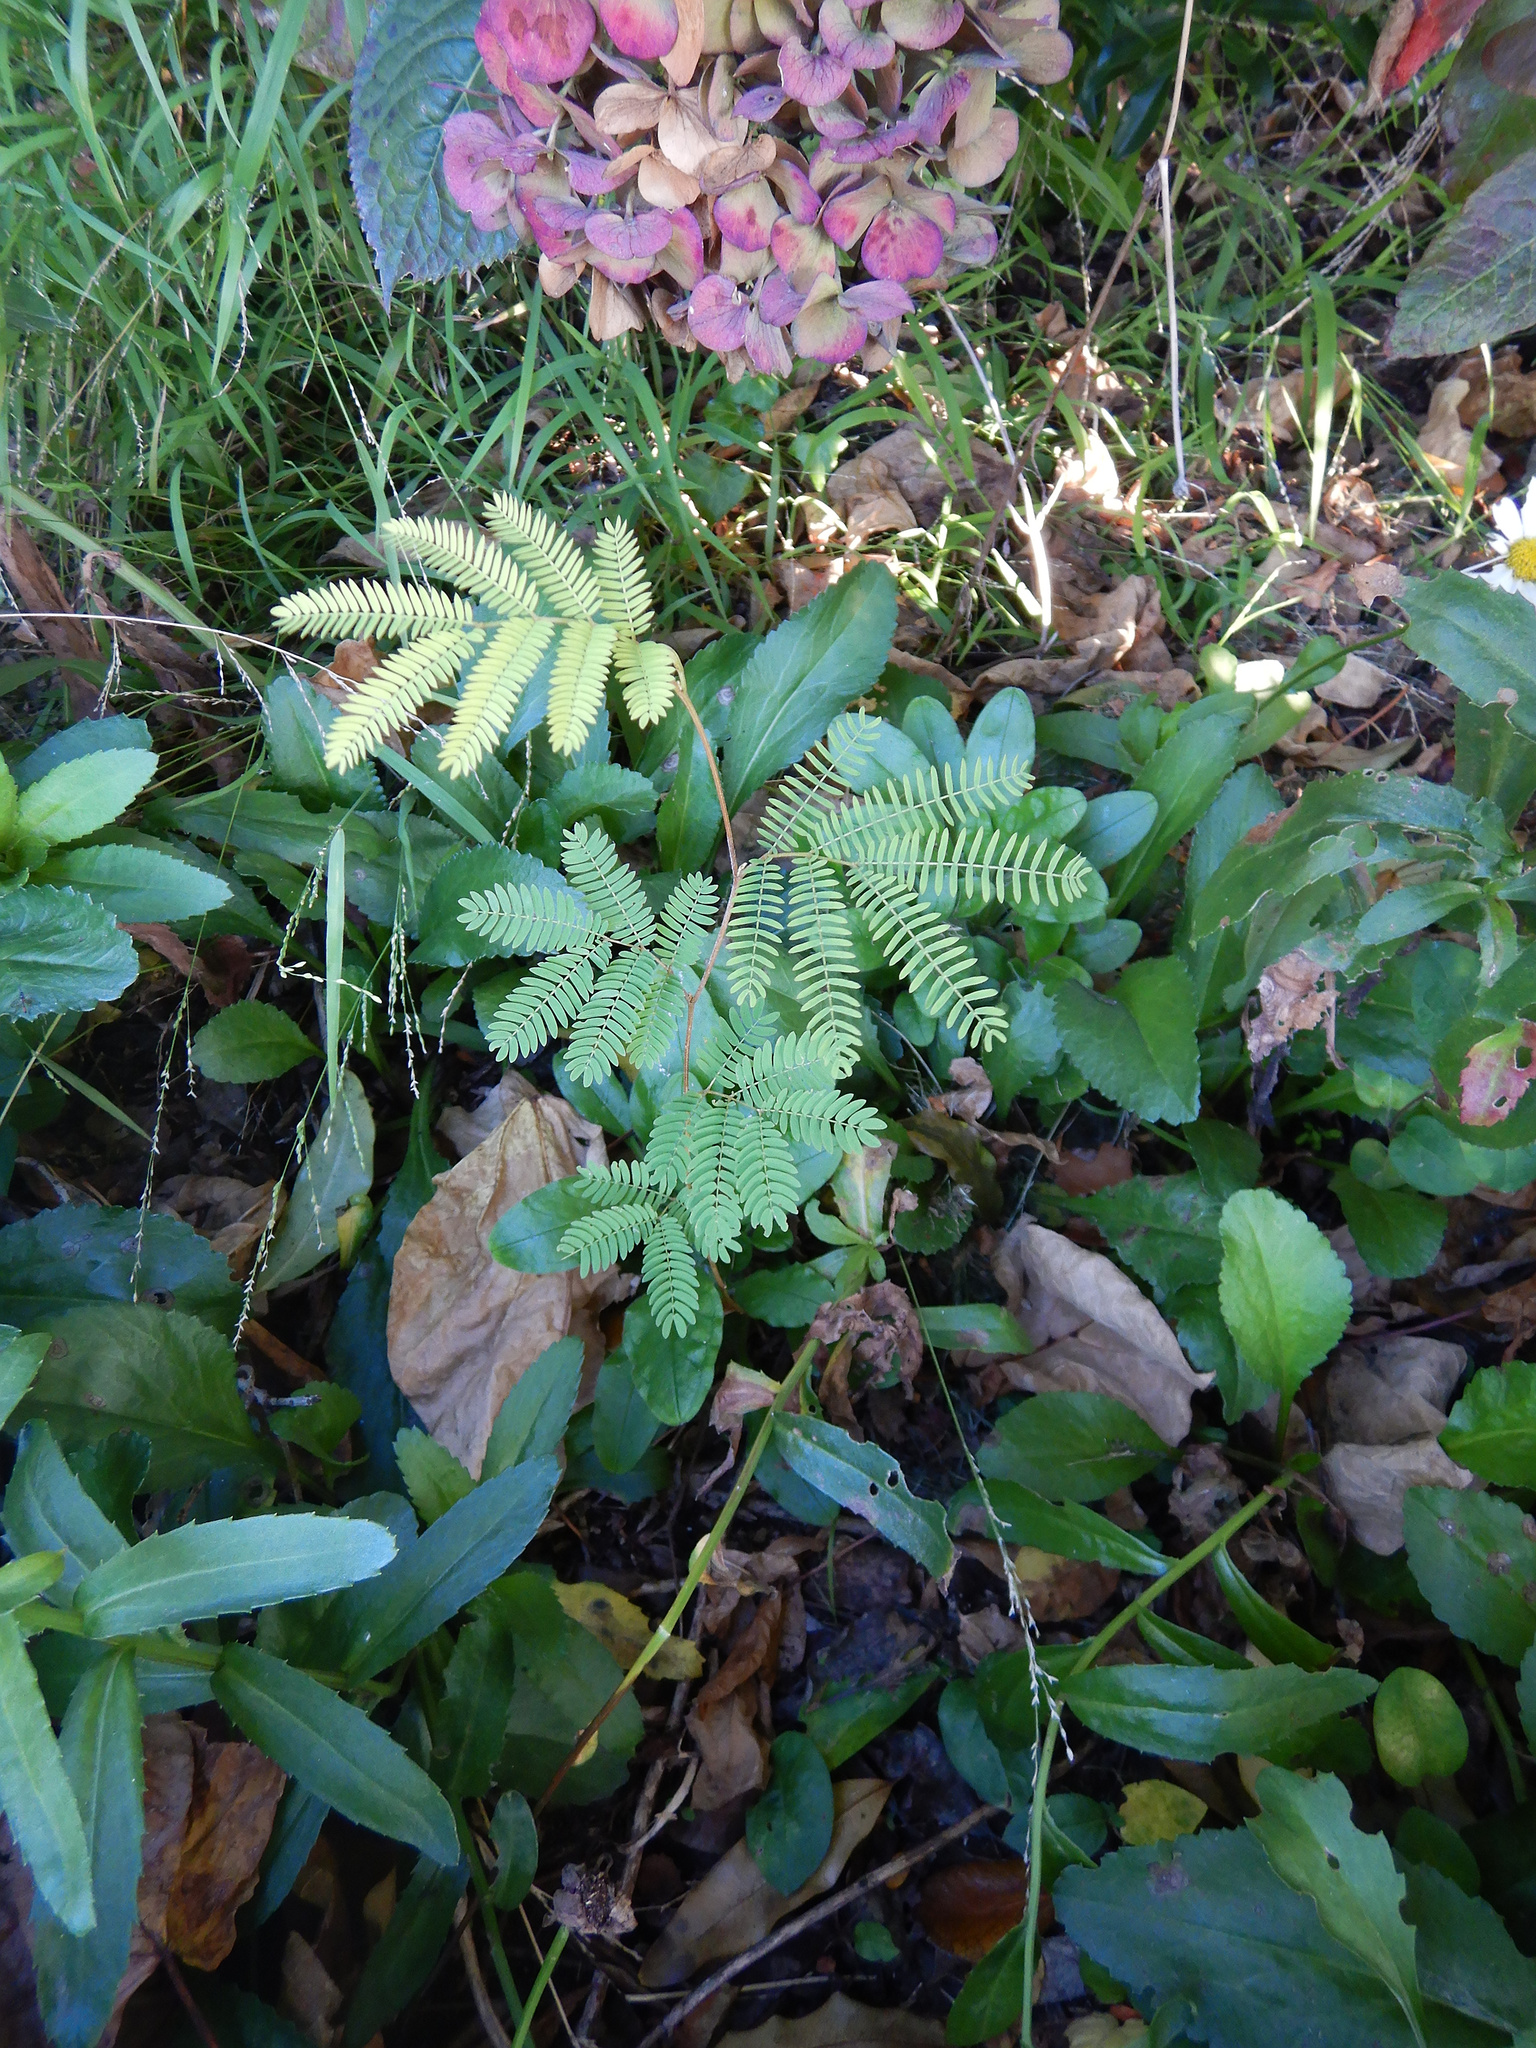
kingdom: Plantae
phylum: Tracheophyta
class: Magnoliopsida
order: Fabales
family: Fabaceae
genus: Paraserianthes
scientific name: Paraserianthes lophantha
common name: Plume albizia
